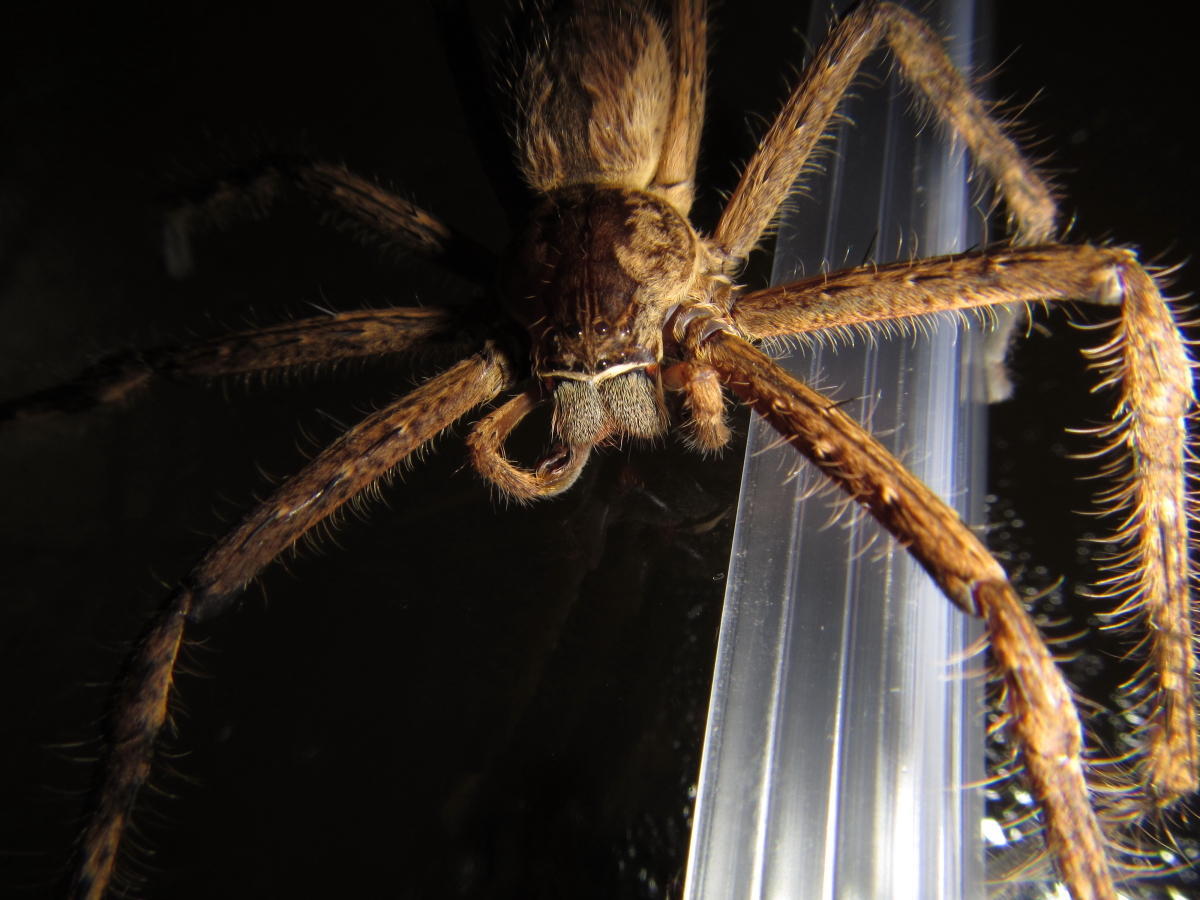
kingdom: Animalia
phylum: Arthropoda
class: Arachnida
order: Araneae
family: Sparassidae
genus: Palystes
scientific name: Palystes superciliosus
